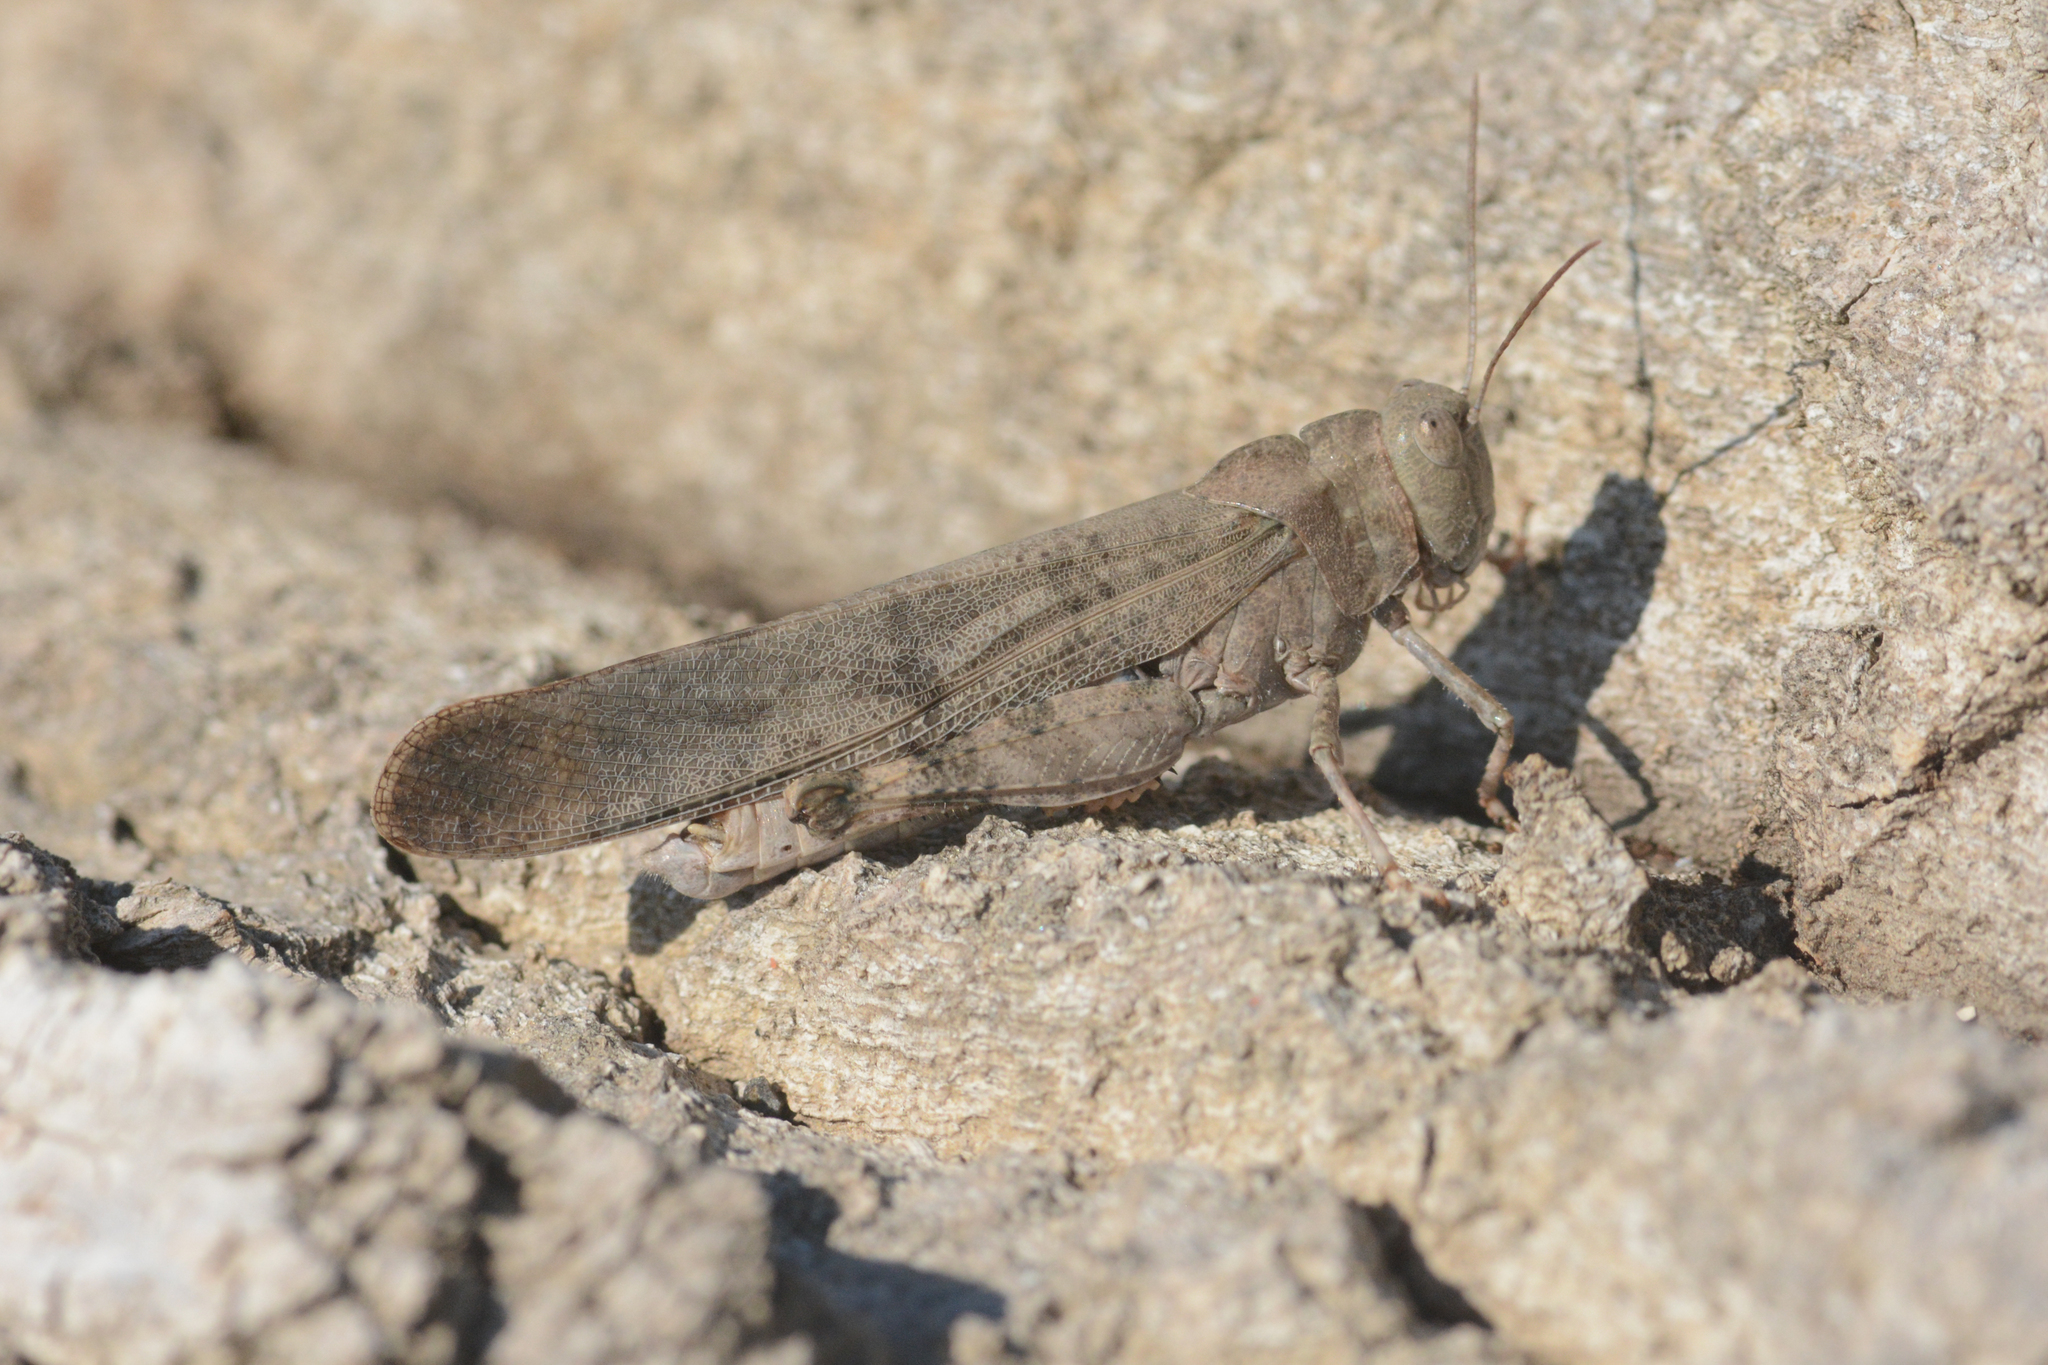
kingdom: Animalia
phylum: Arthropoda
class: Insecta
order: Orthoptera
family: Acrididae
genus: Dissosteira
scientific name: Dissosteira carolina
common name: Carolina grasshopper
